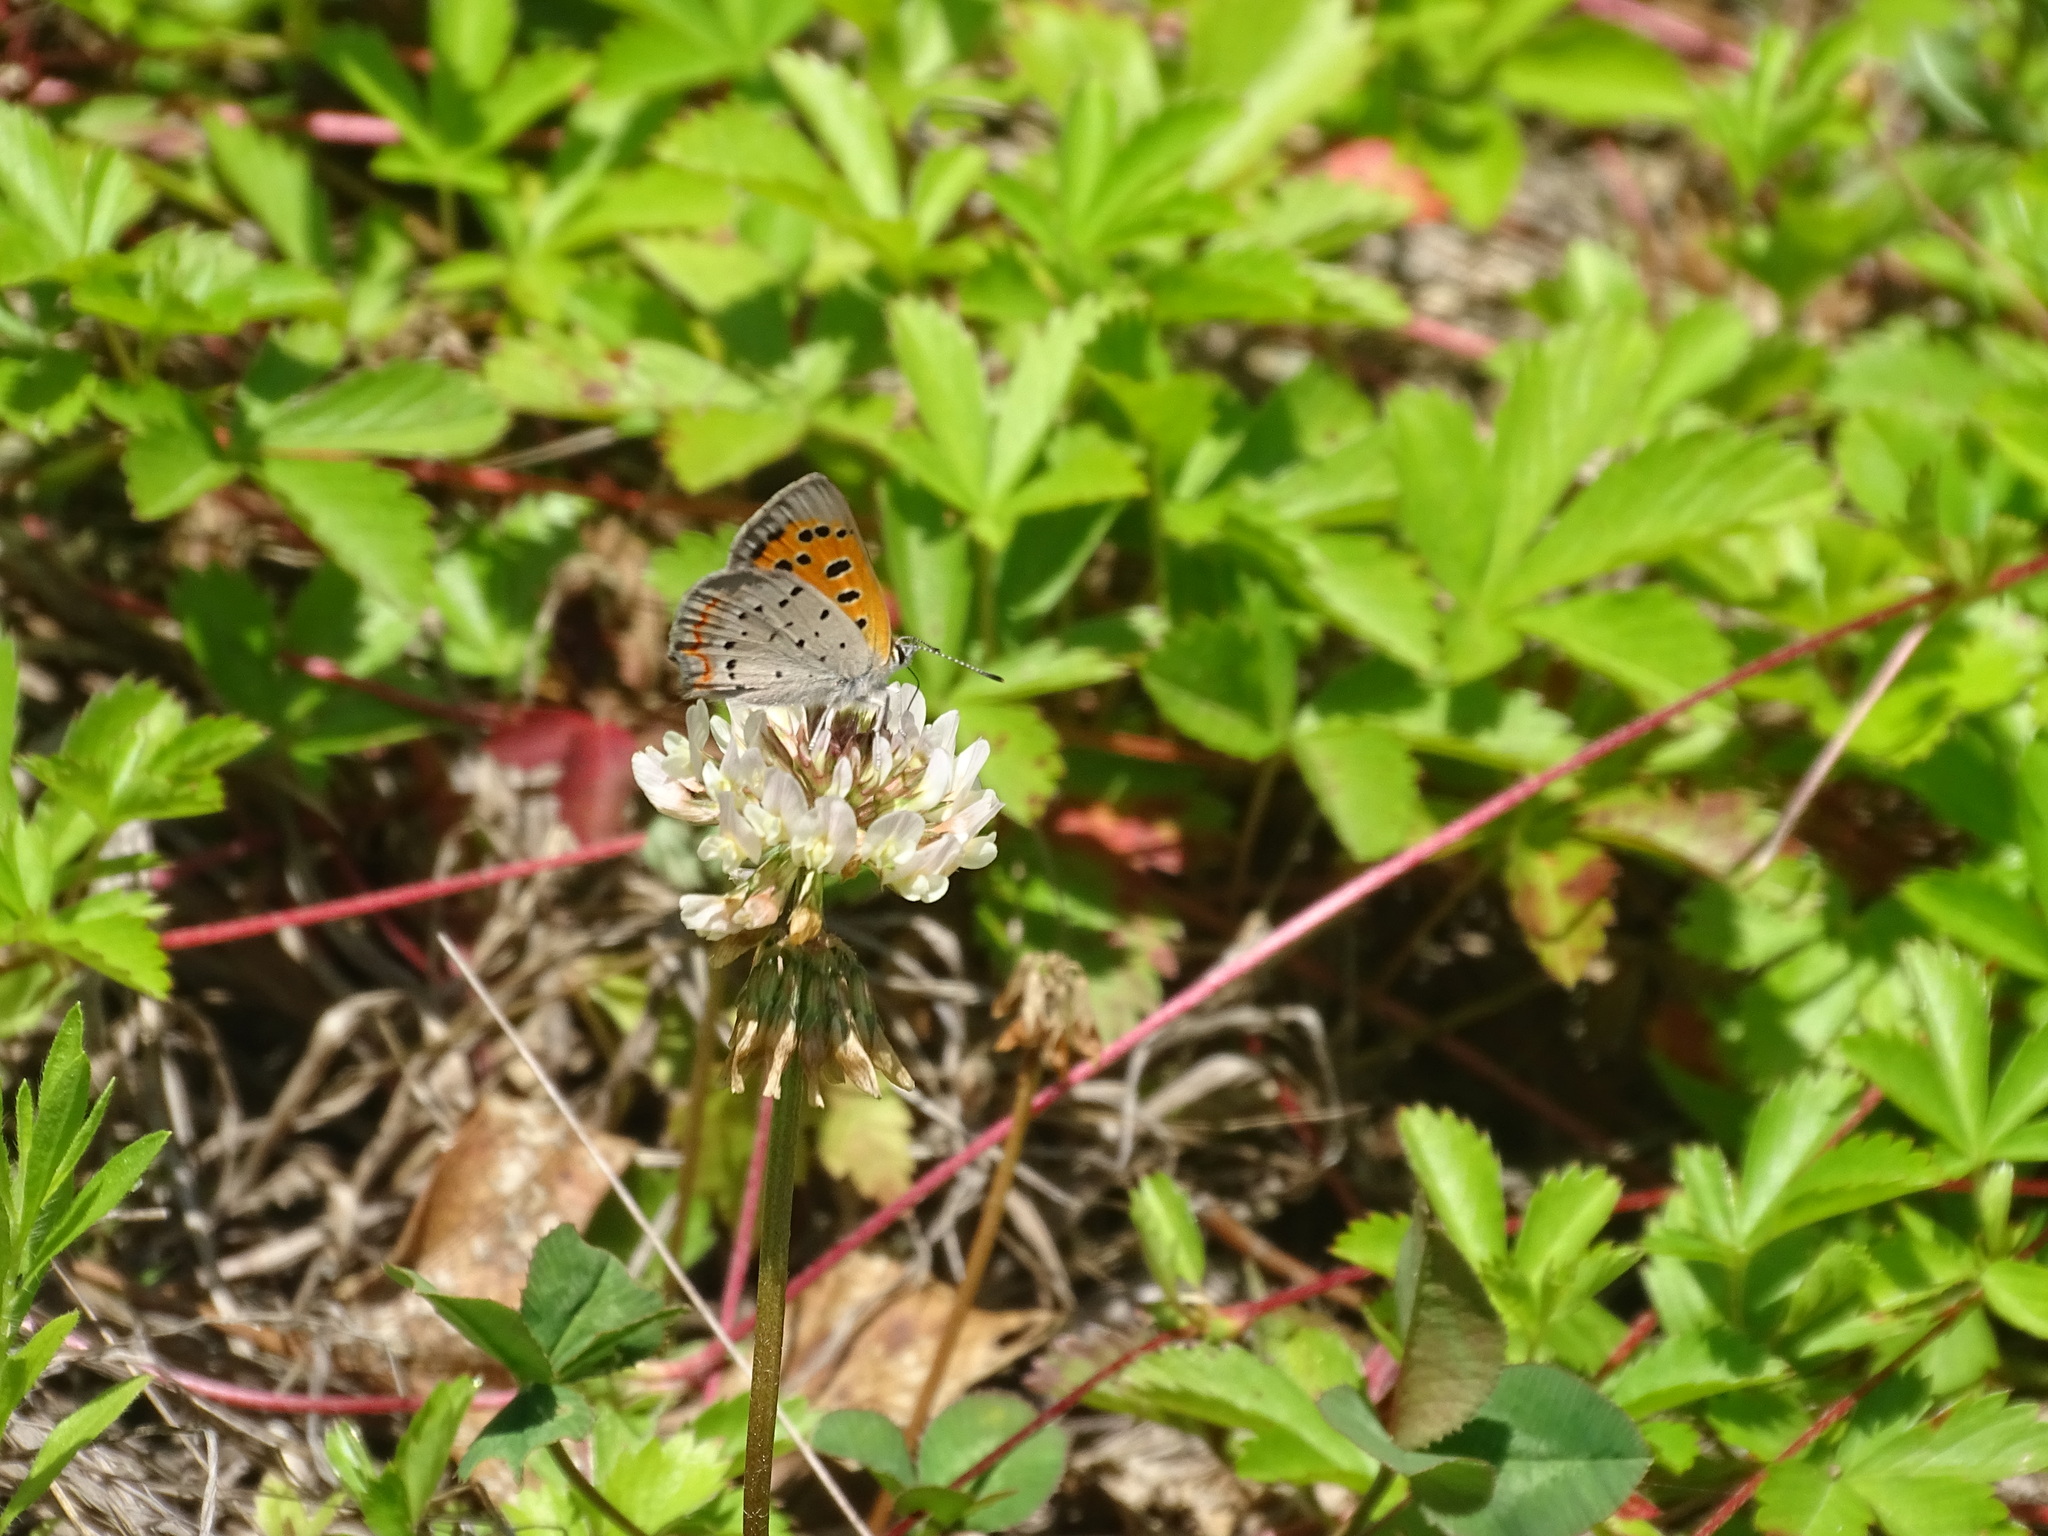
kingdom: Animalia
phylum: Arthropoda
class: Insecta
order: Lepidoptera
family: Lycaenidae
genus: Lycaena
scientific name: Lycaena hypophlaeas
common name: American copper
